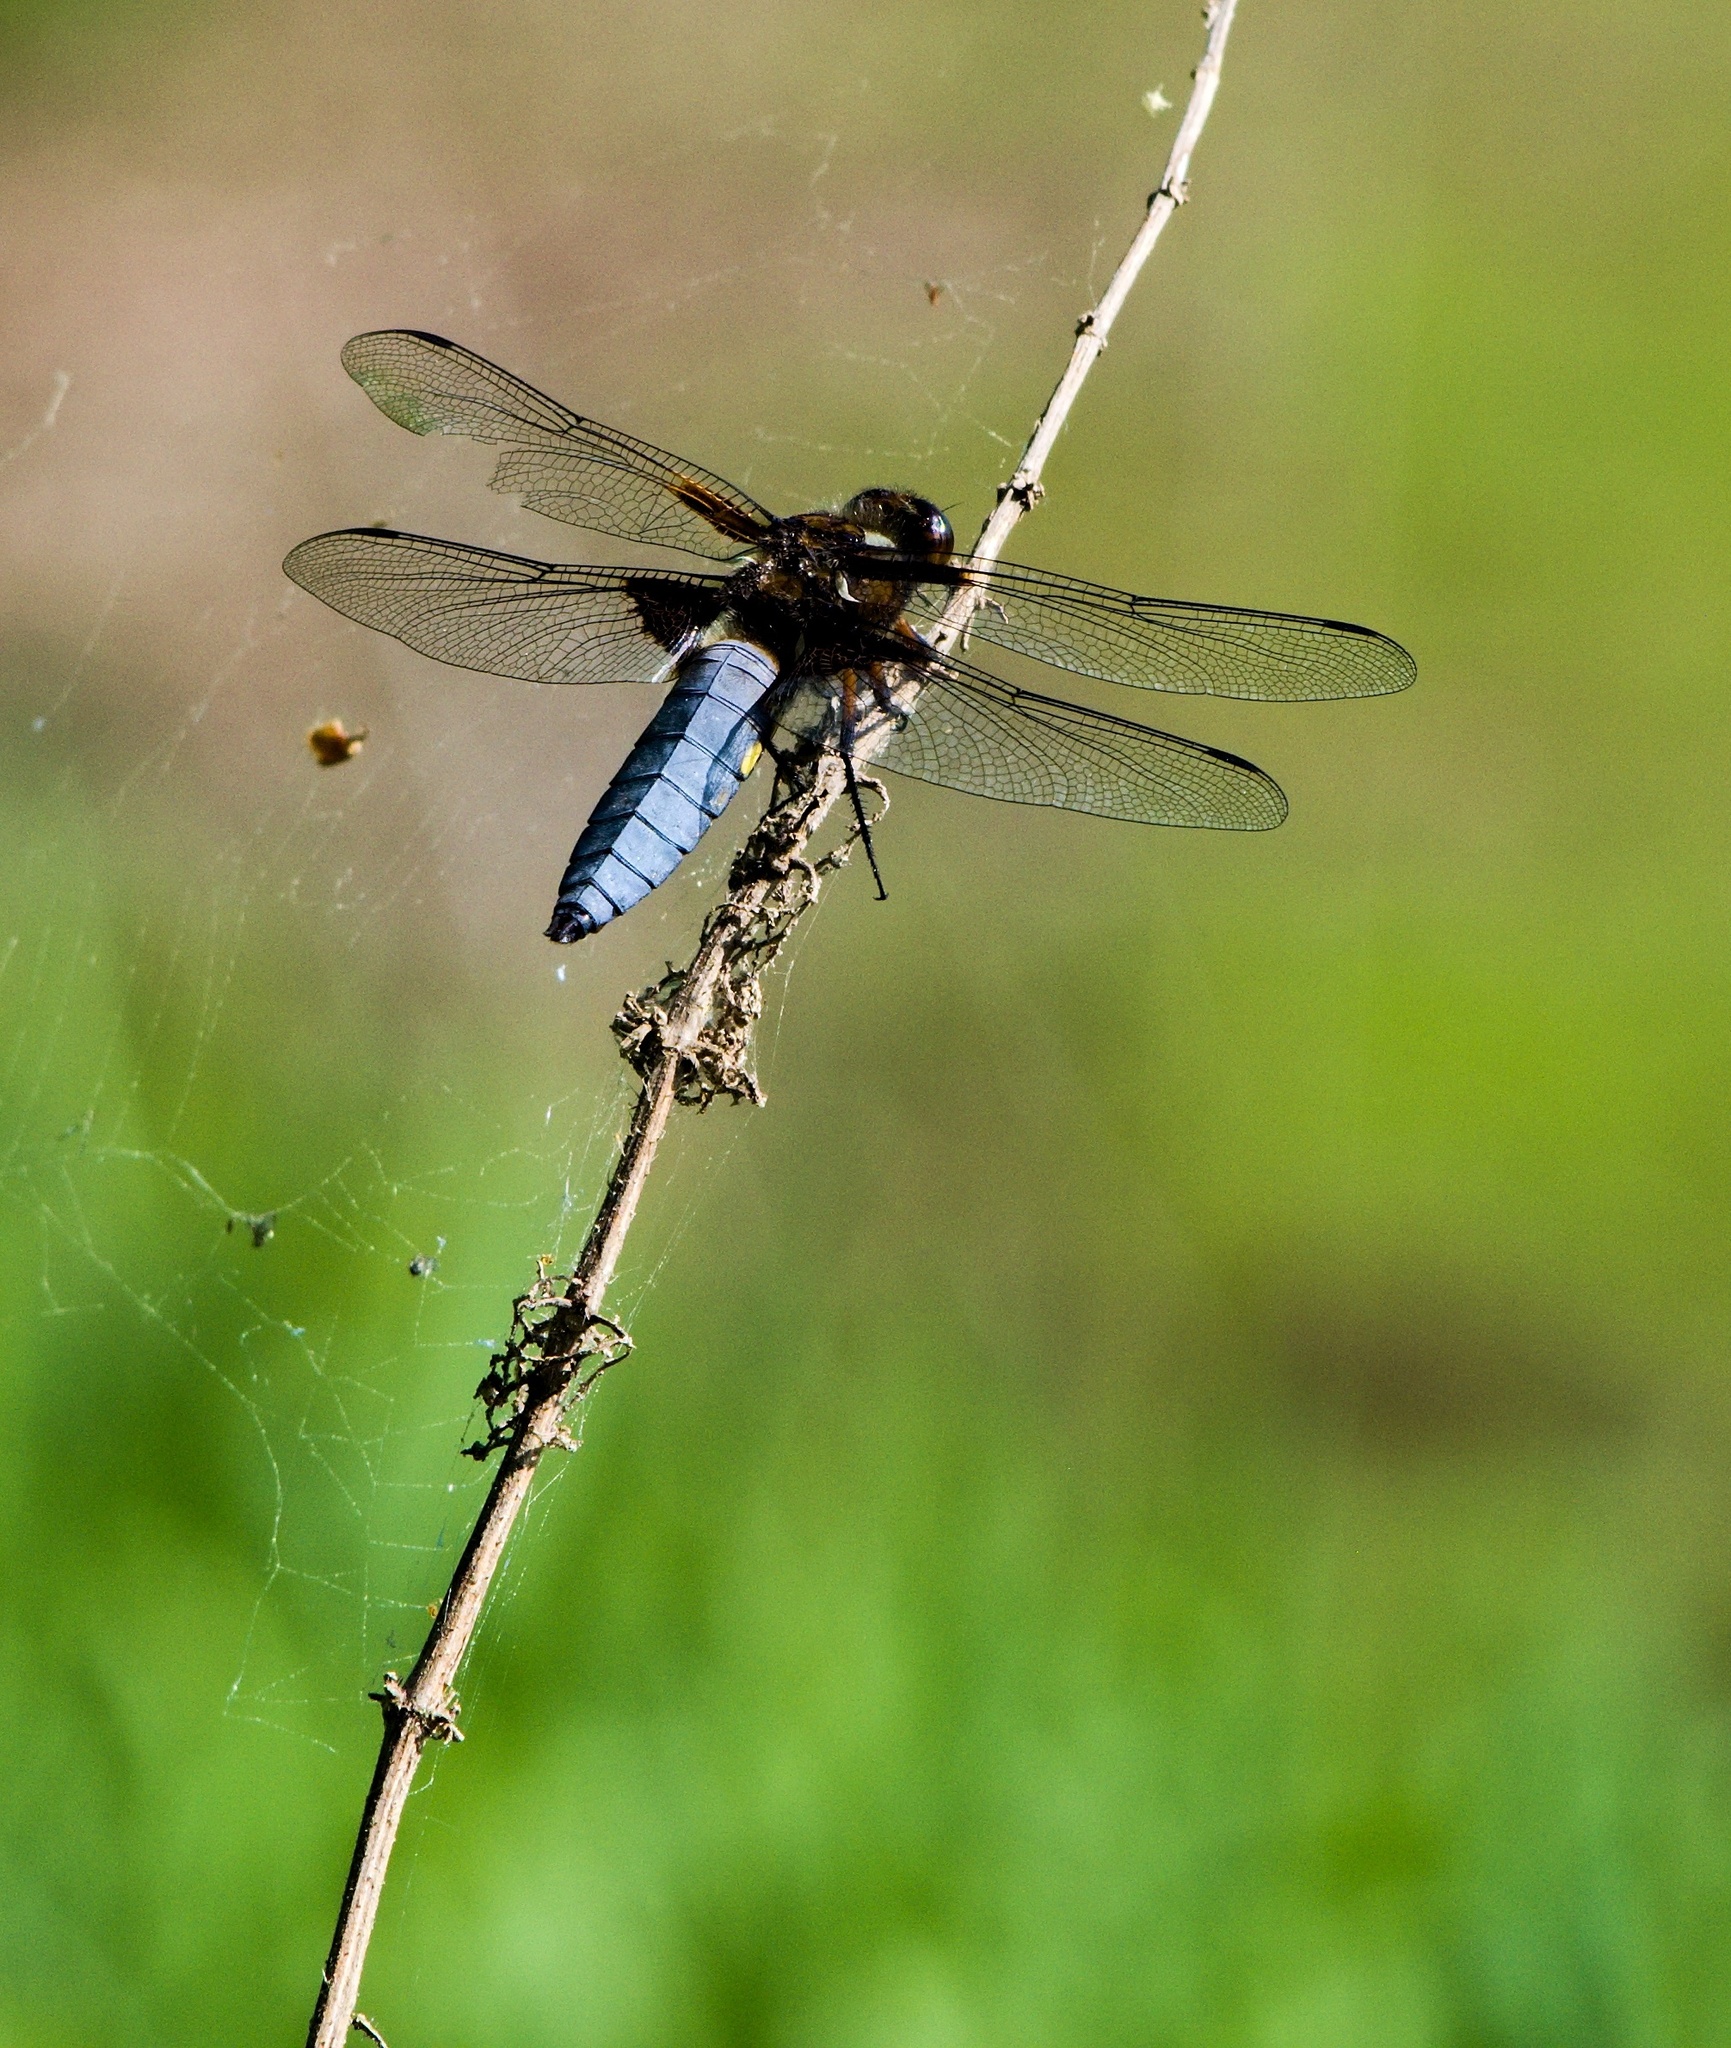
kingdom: Animalia
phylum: Arthropoda
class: Insecta
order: Odonata
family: Libellulidae
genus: Libellula
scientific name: Libellula depressa
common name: Broad-bodied chaser
